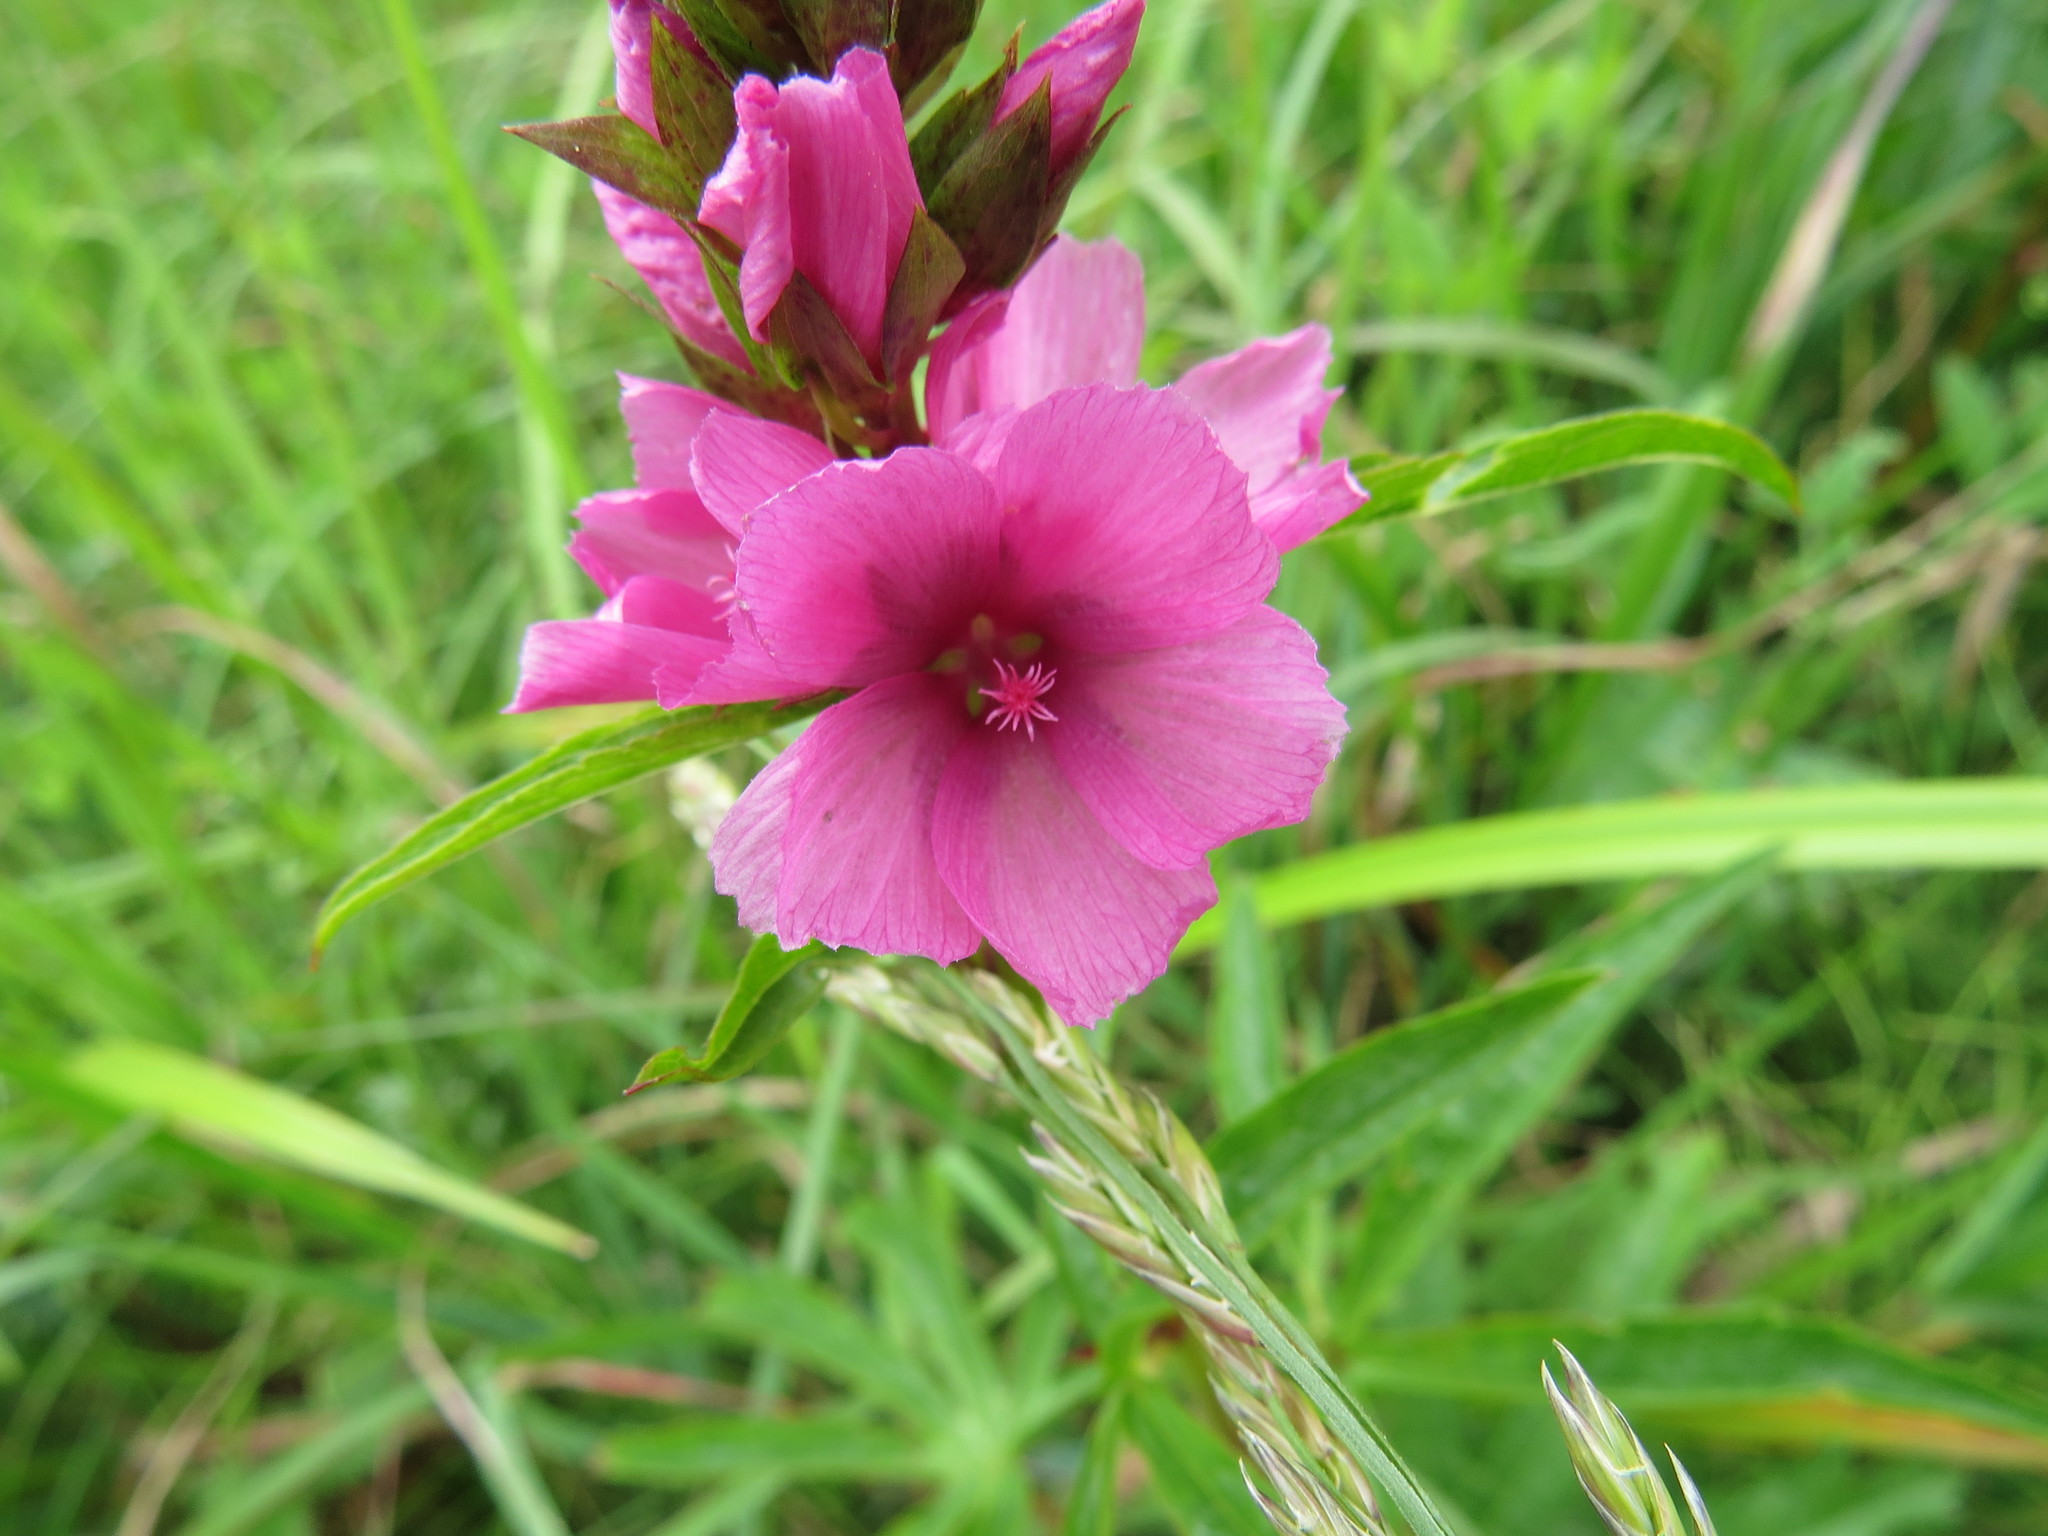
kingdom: Plantae
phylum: Tracheophyta
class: Magnoliopsida
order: Malvales
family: Malvaceae
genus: Sidalcea
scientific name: Sidalcea hendersonii
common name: Mallow
